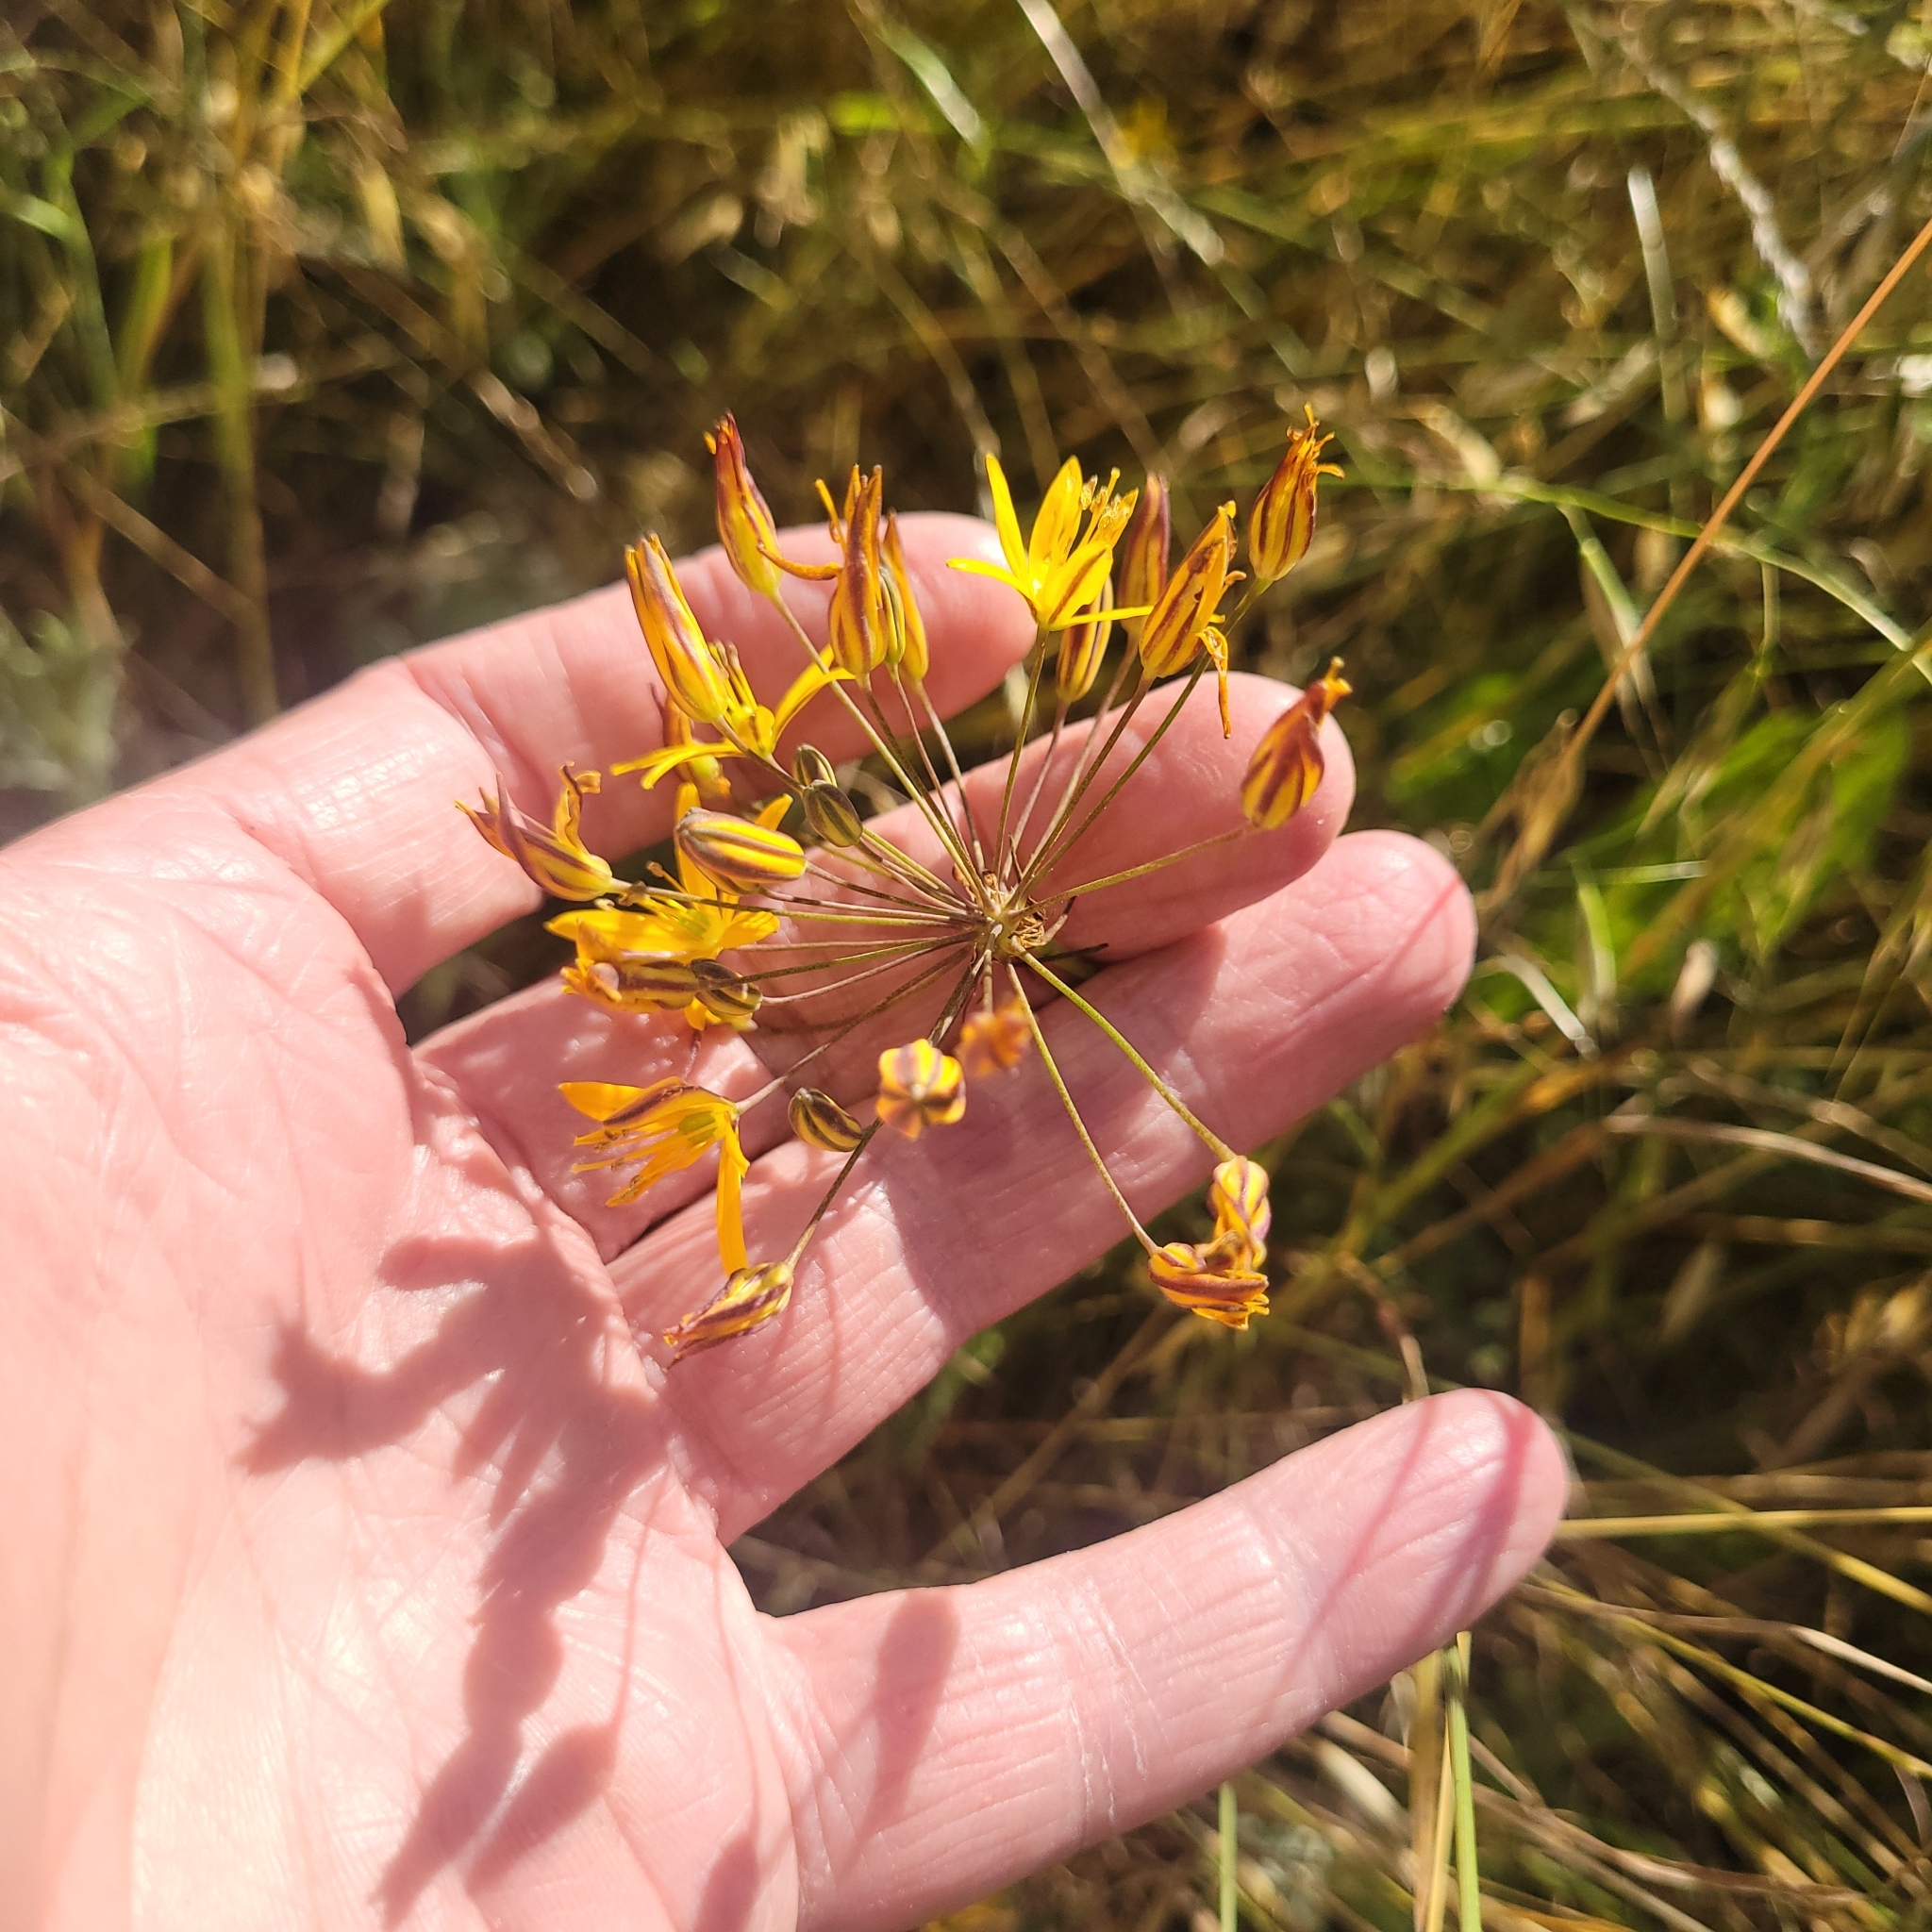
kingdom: Plantae
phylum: Tracheophyta
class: Liliopsida
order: Asparagales
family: Asparagaceae
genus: Bloomeria
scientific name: Bloomeria crocea
